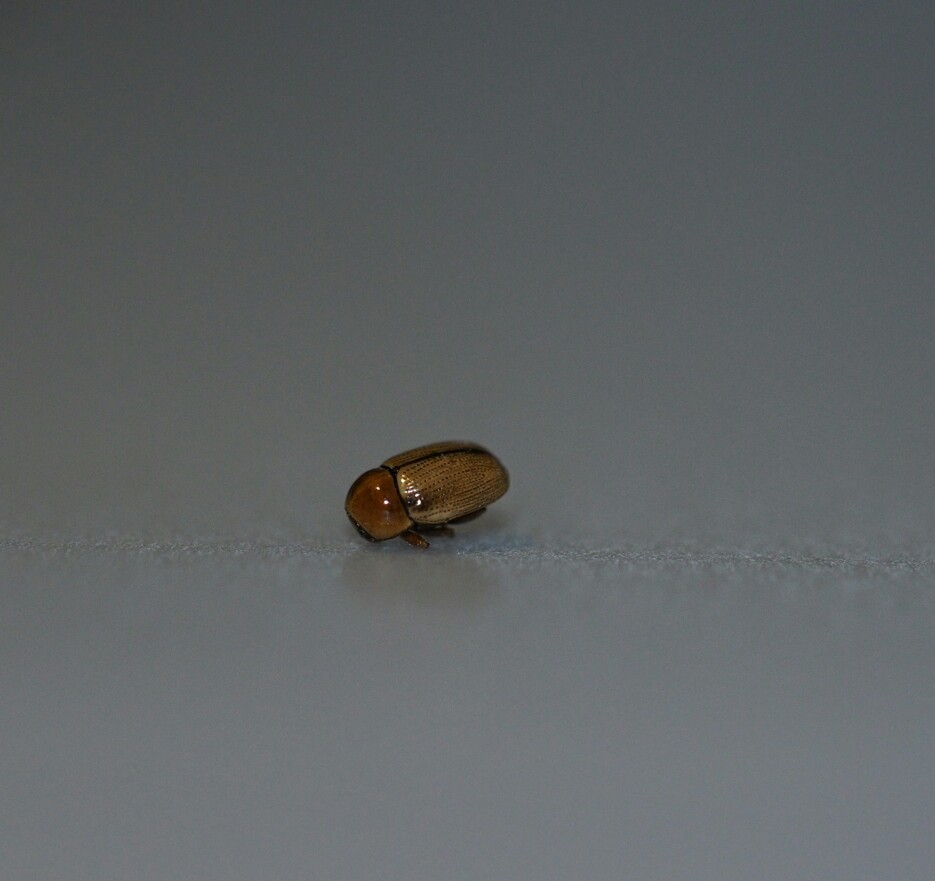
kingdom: Animalia
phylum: Arthropoda
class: Insecta
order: Coleoptera
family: Chrysomelidae
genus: Cryptocephalus
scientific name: Cryptocephalus fulvus
